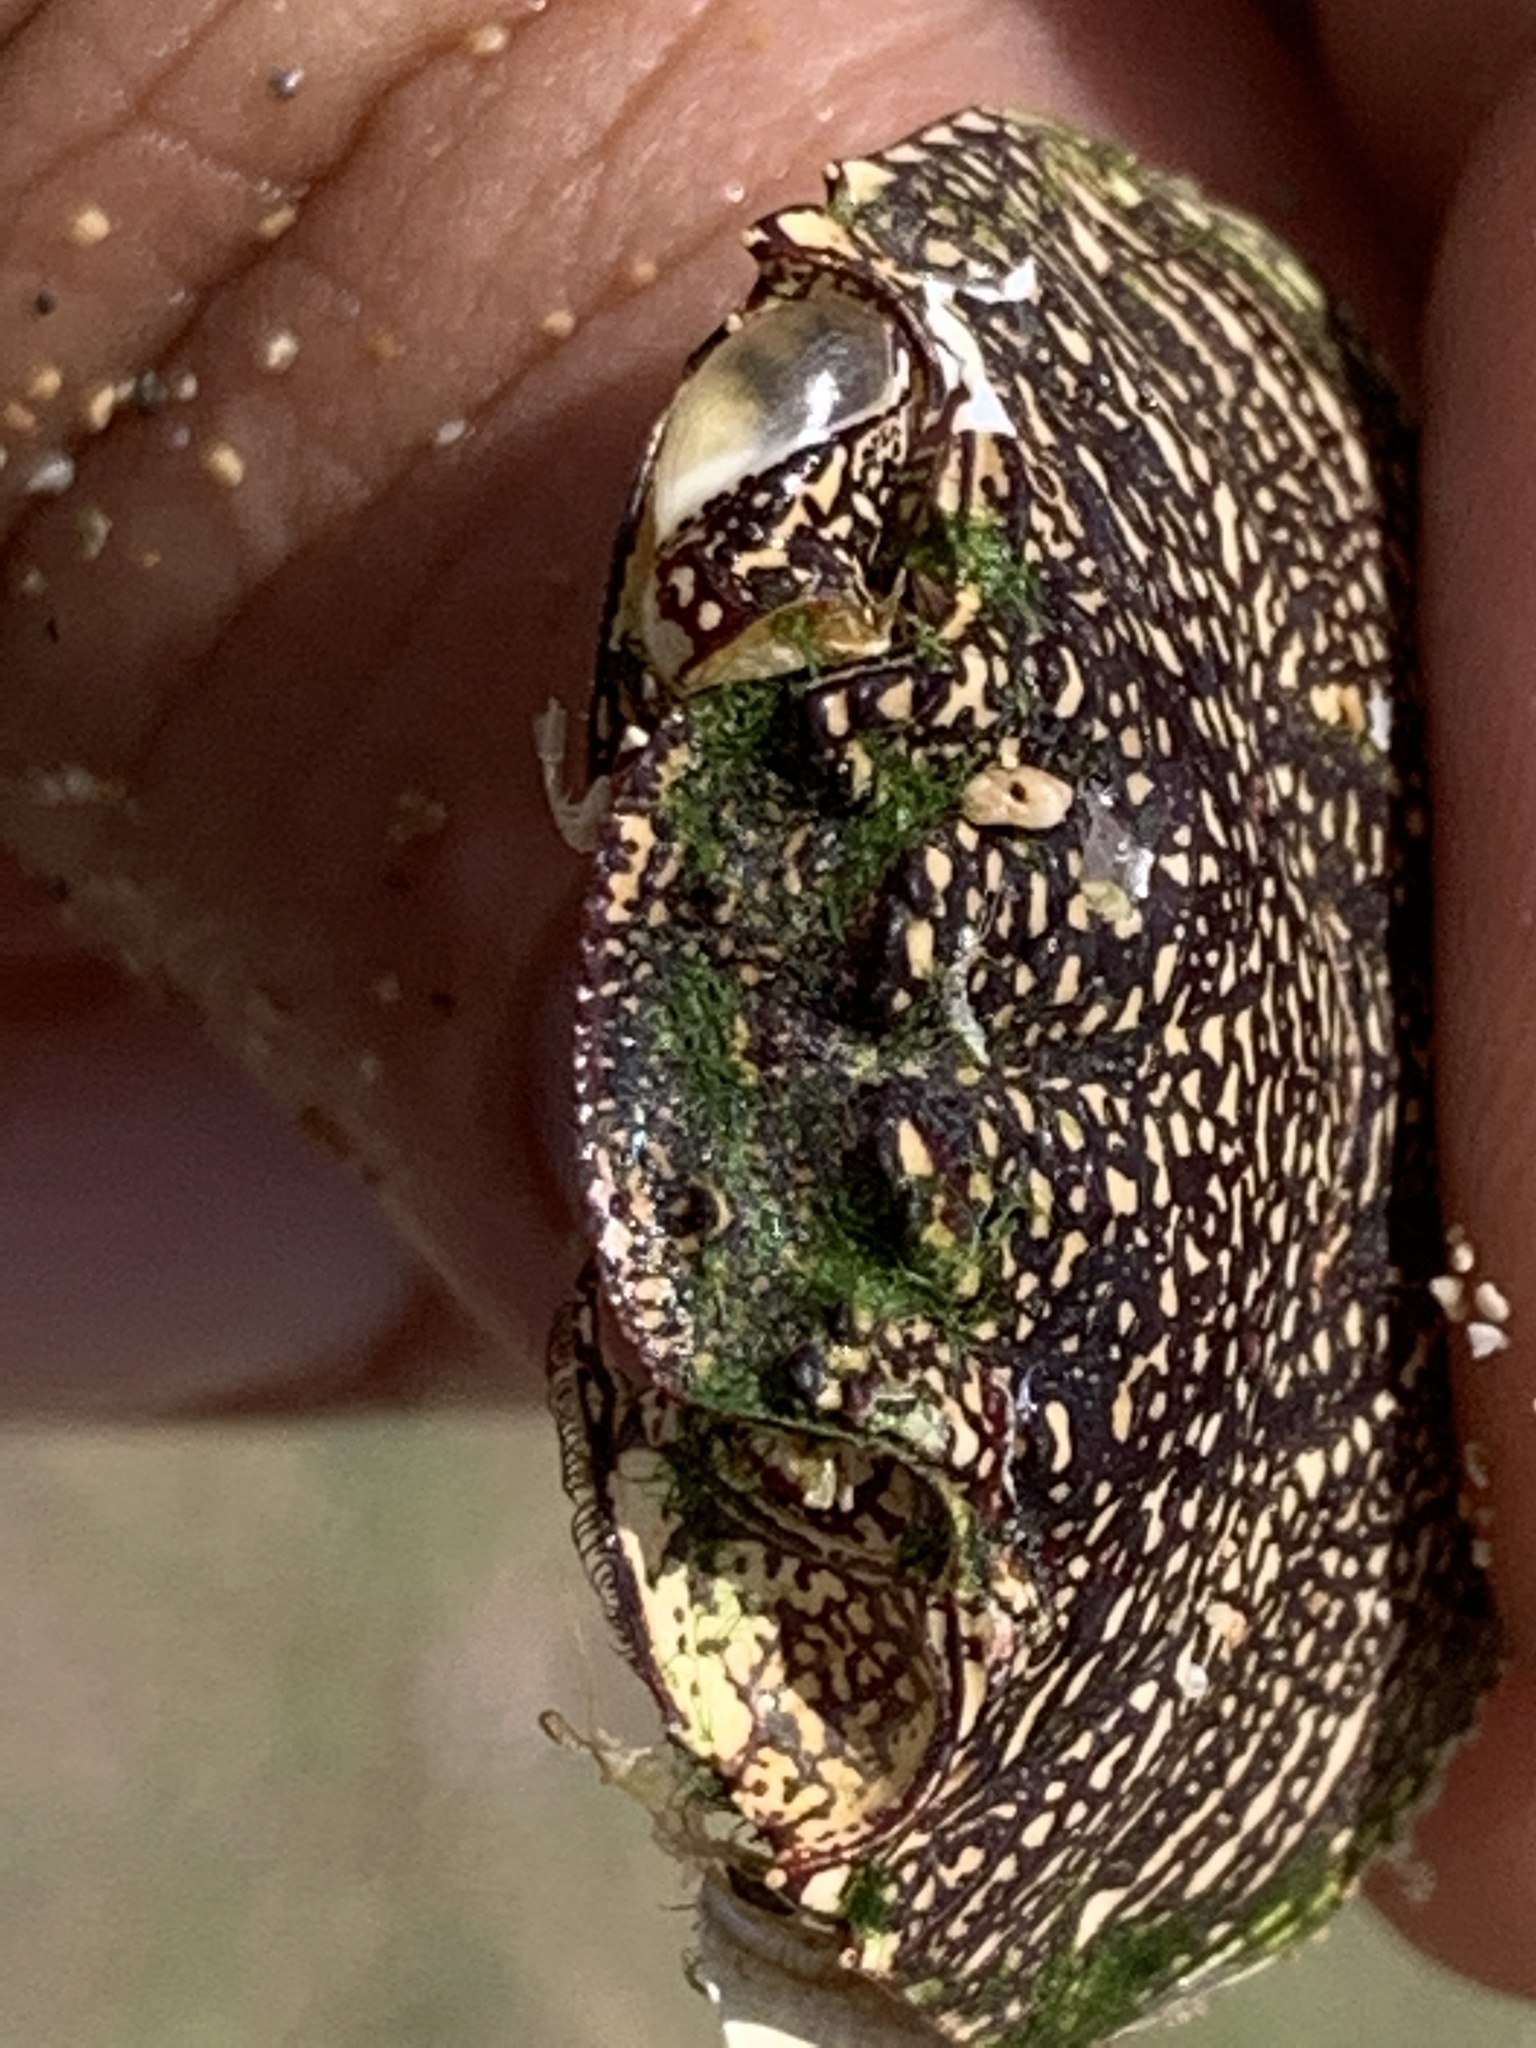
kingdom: Animalia
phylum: Arthropoda
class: Malacostraca
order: Decapoda
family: Grapsidae
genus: Grapsus
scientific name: Grapsus tenuicrustatus
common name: Natal lightfoot crab
